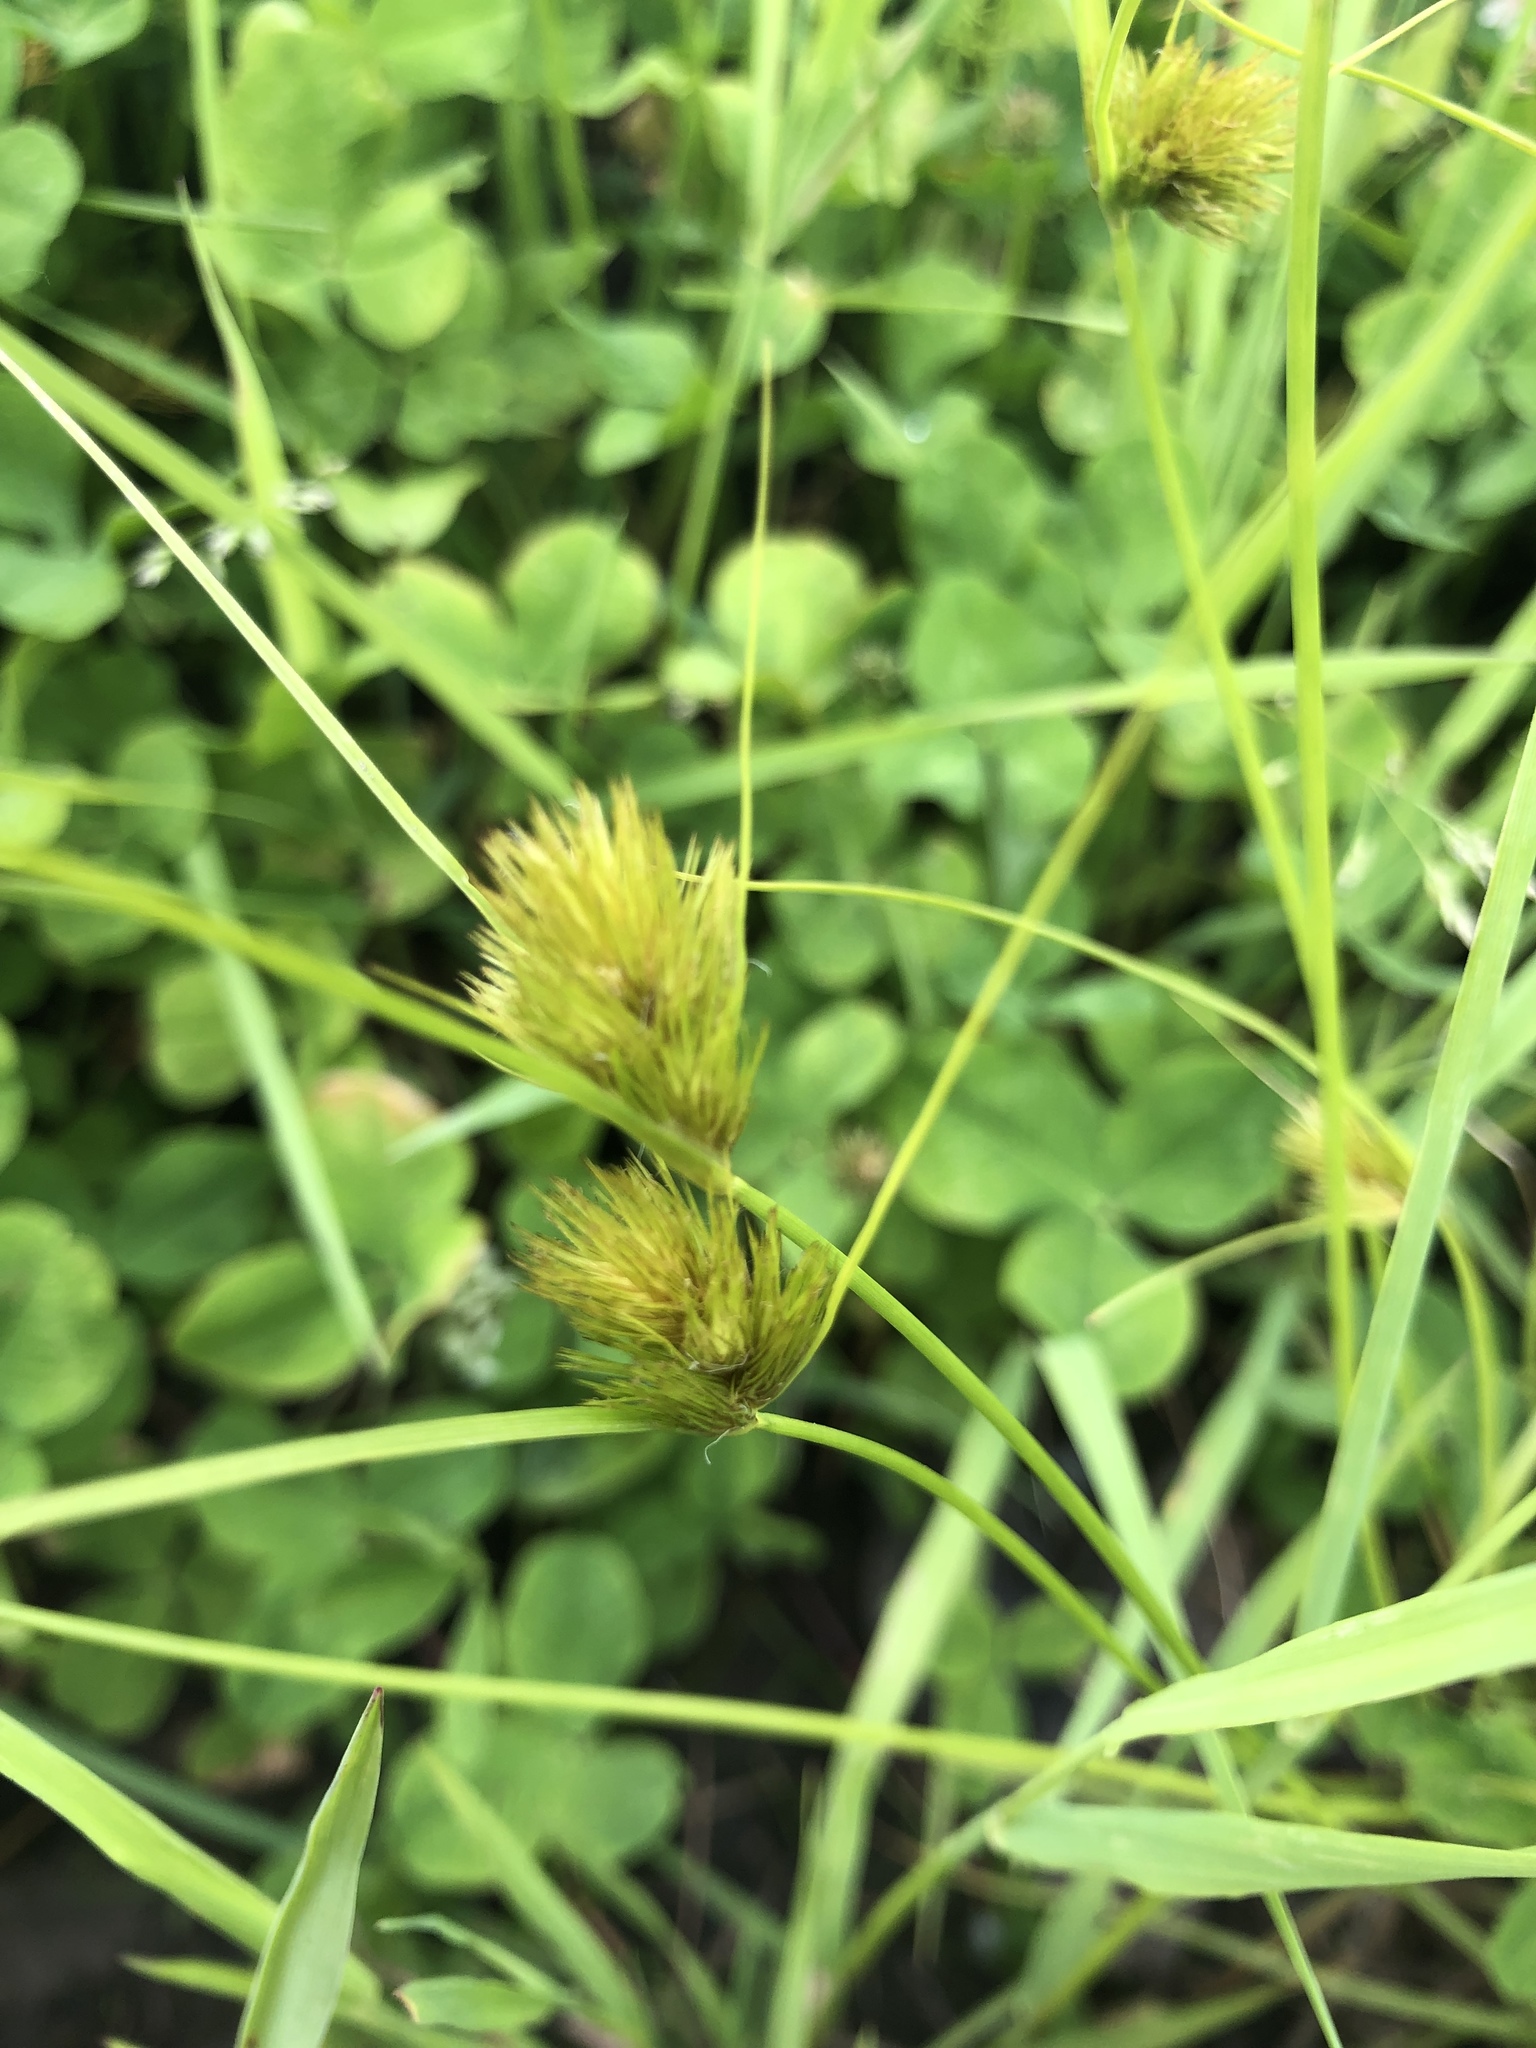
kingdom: Plantae
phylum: Tracheophyta
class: Liliopsida
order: Poales
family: Cyperaceae
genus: Carex
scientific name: Carex bohemica
